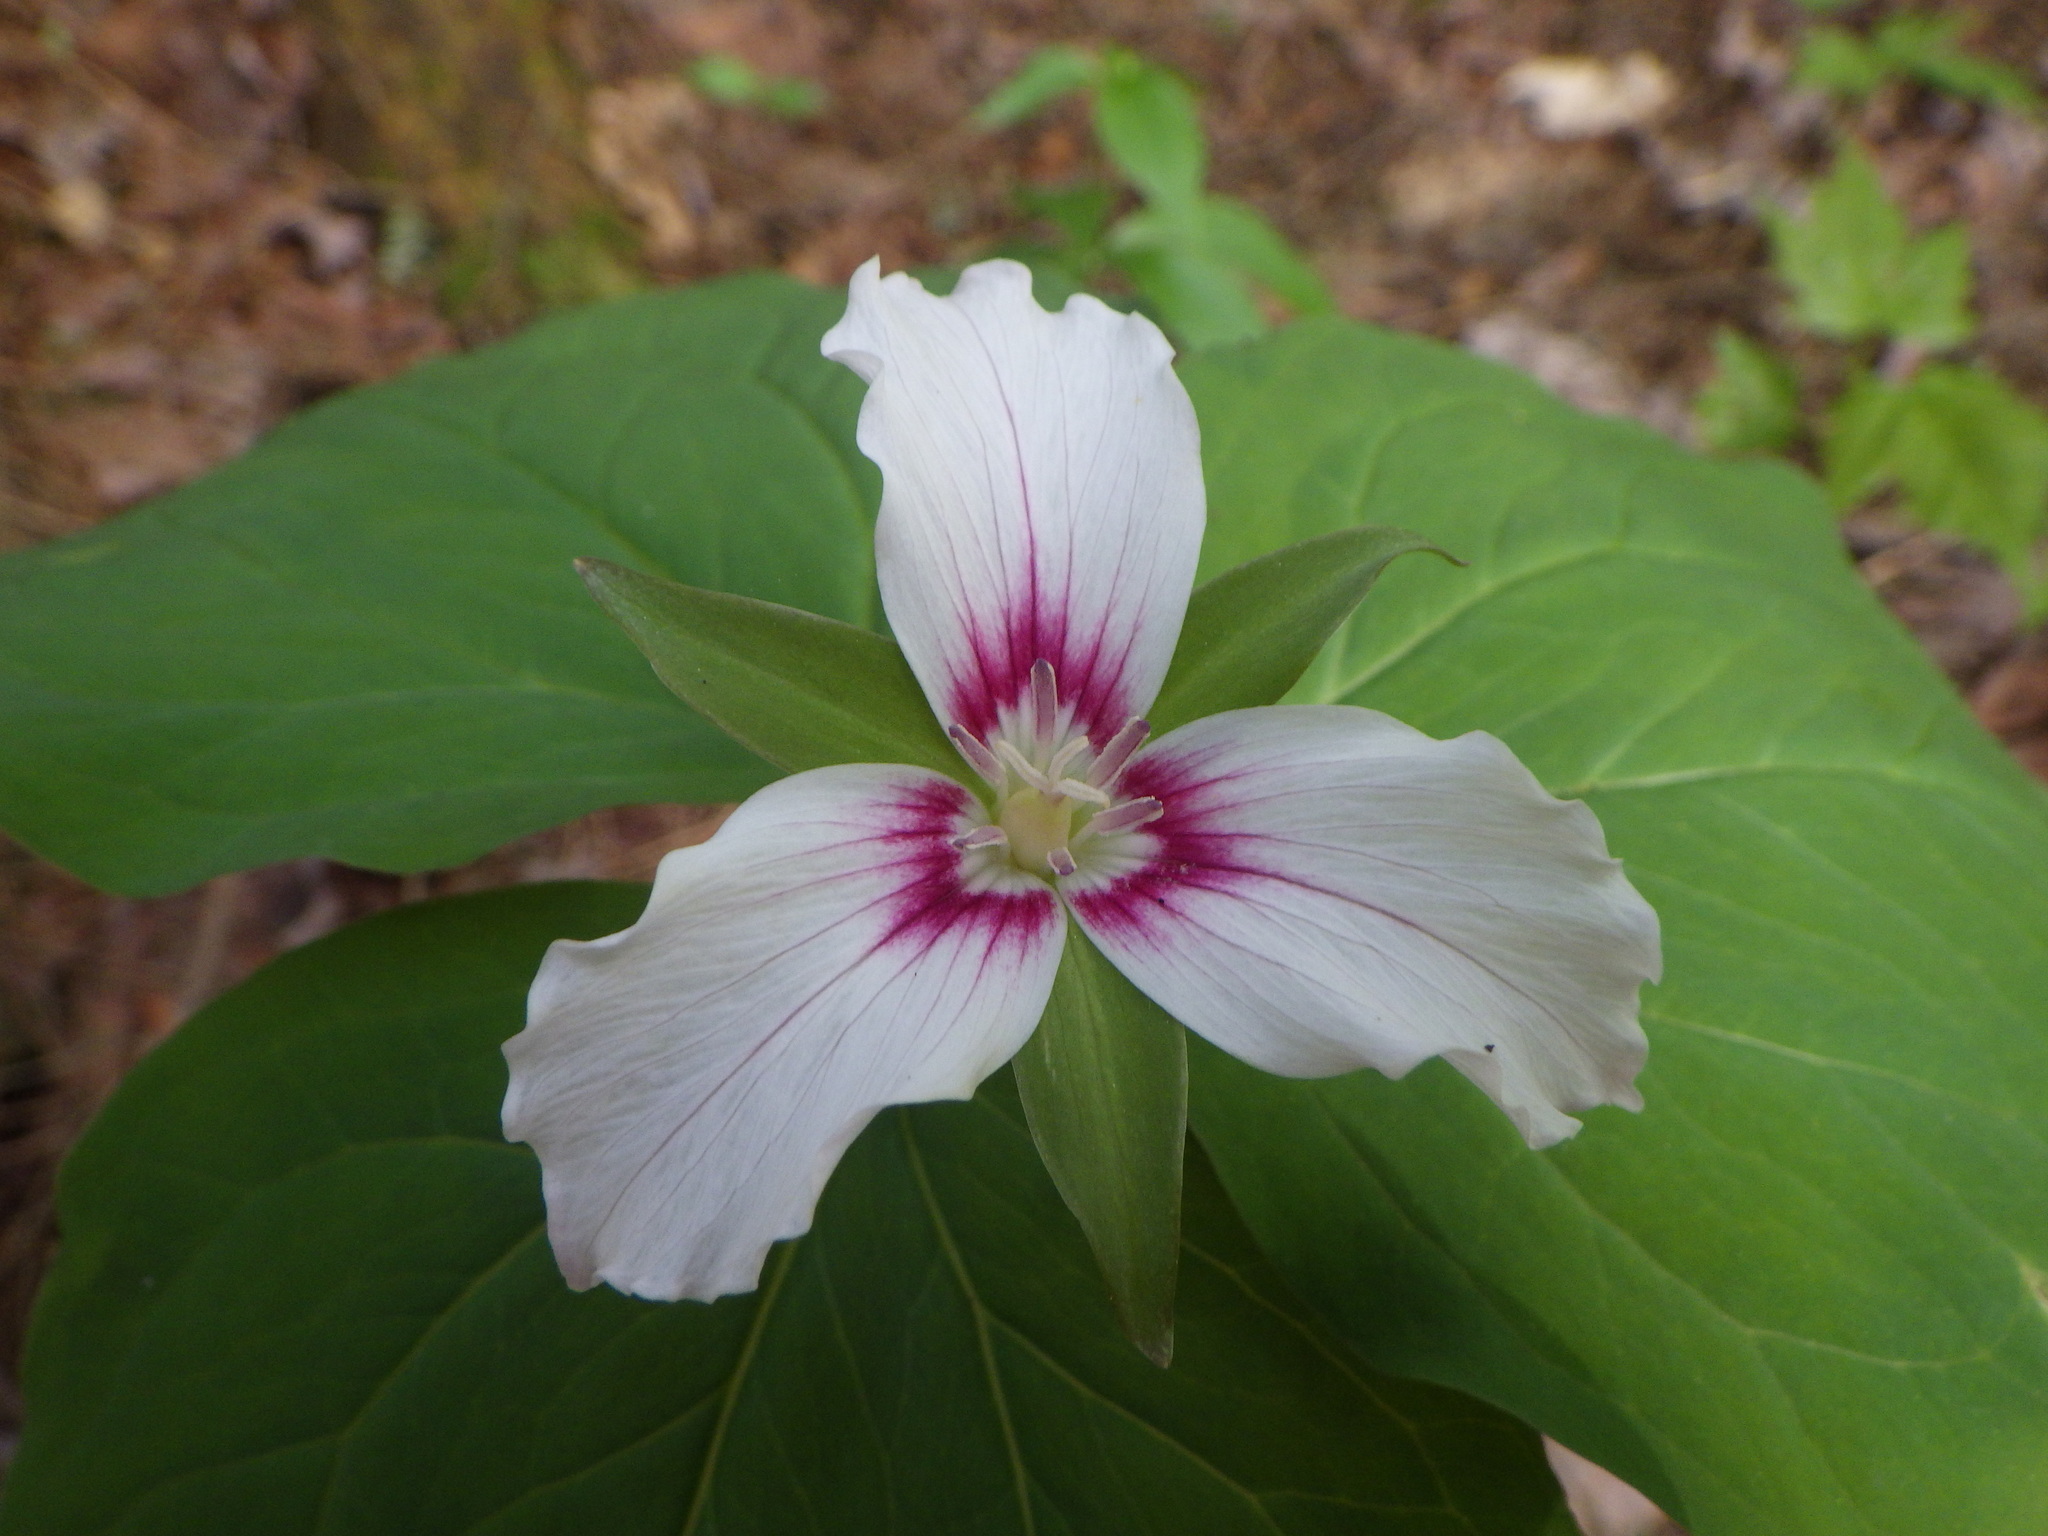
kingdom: Plantae
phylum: Tracheophyta
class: Liliopsida
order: Liliales
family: Melanthiaceae
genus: Trillium
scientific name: Trillium undulatum
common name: Paint trillium
